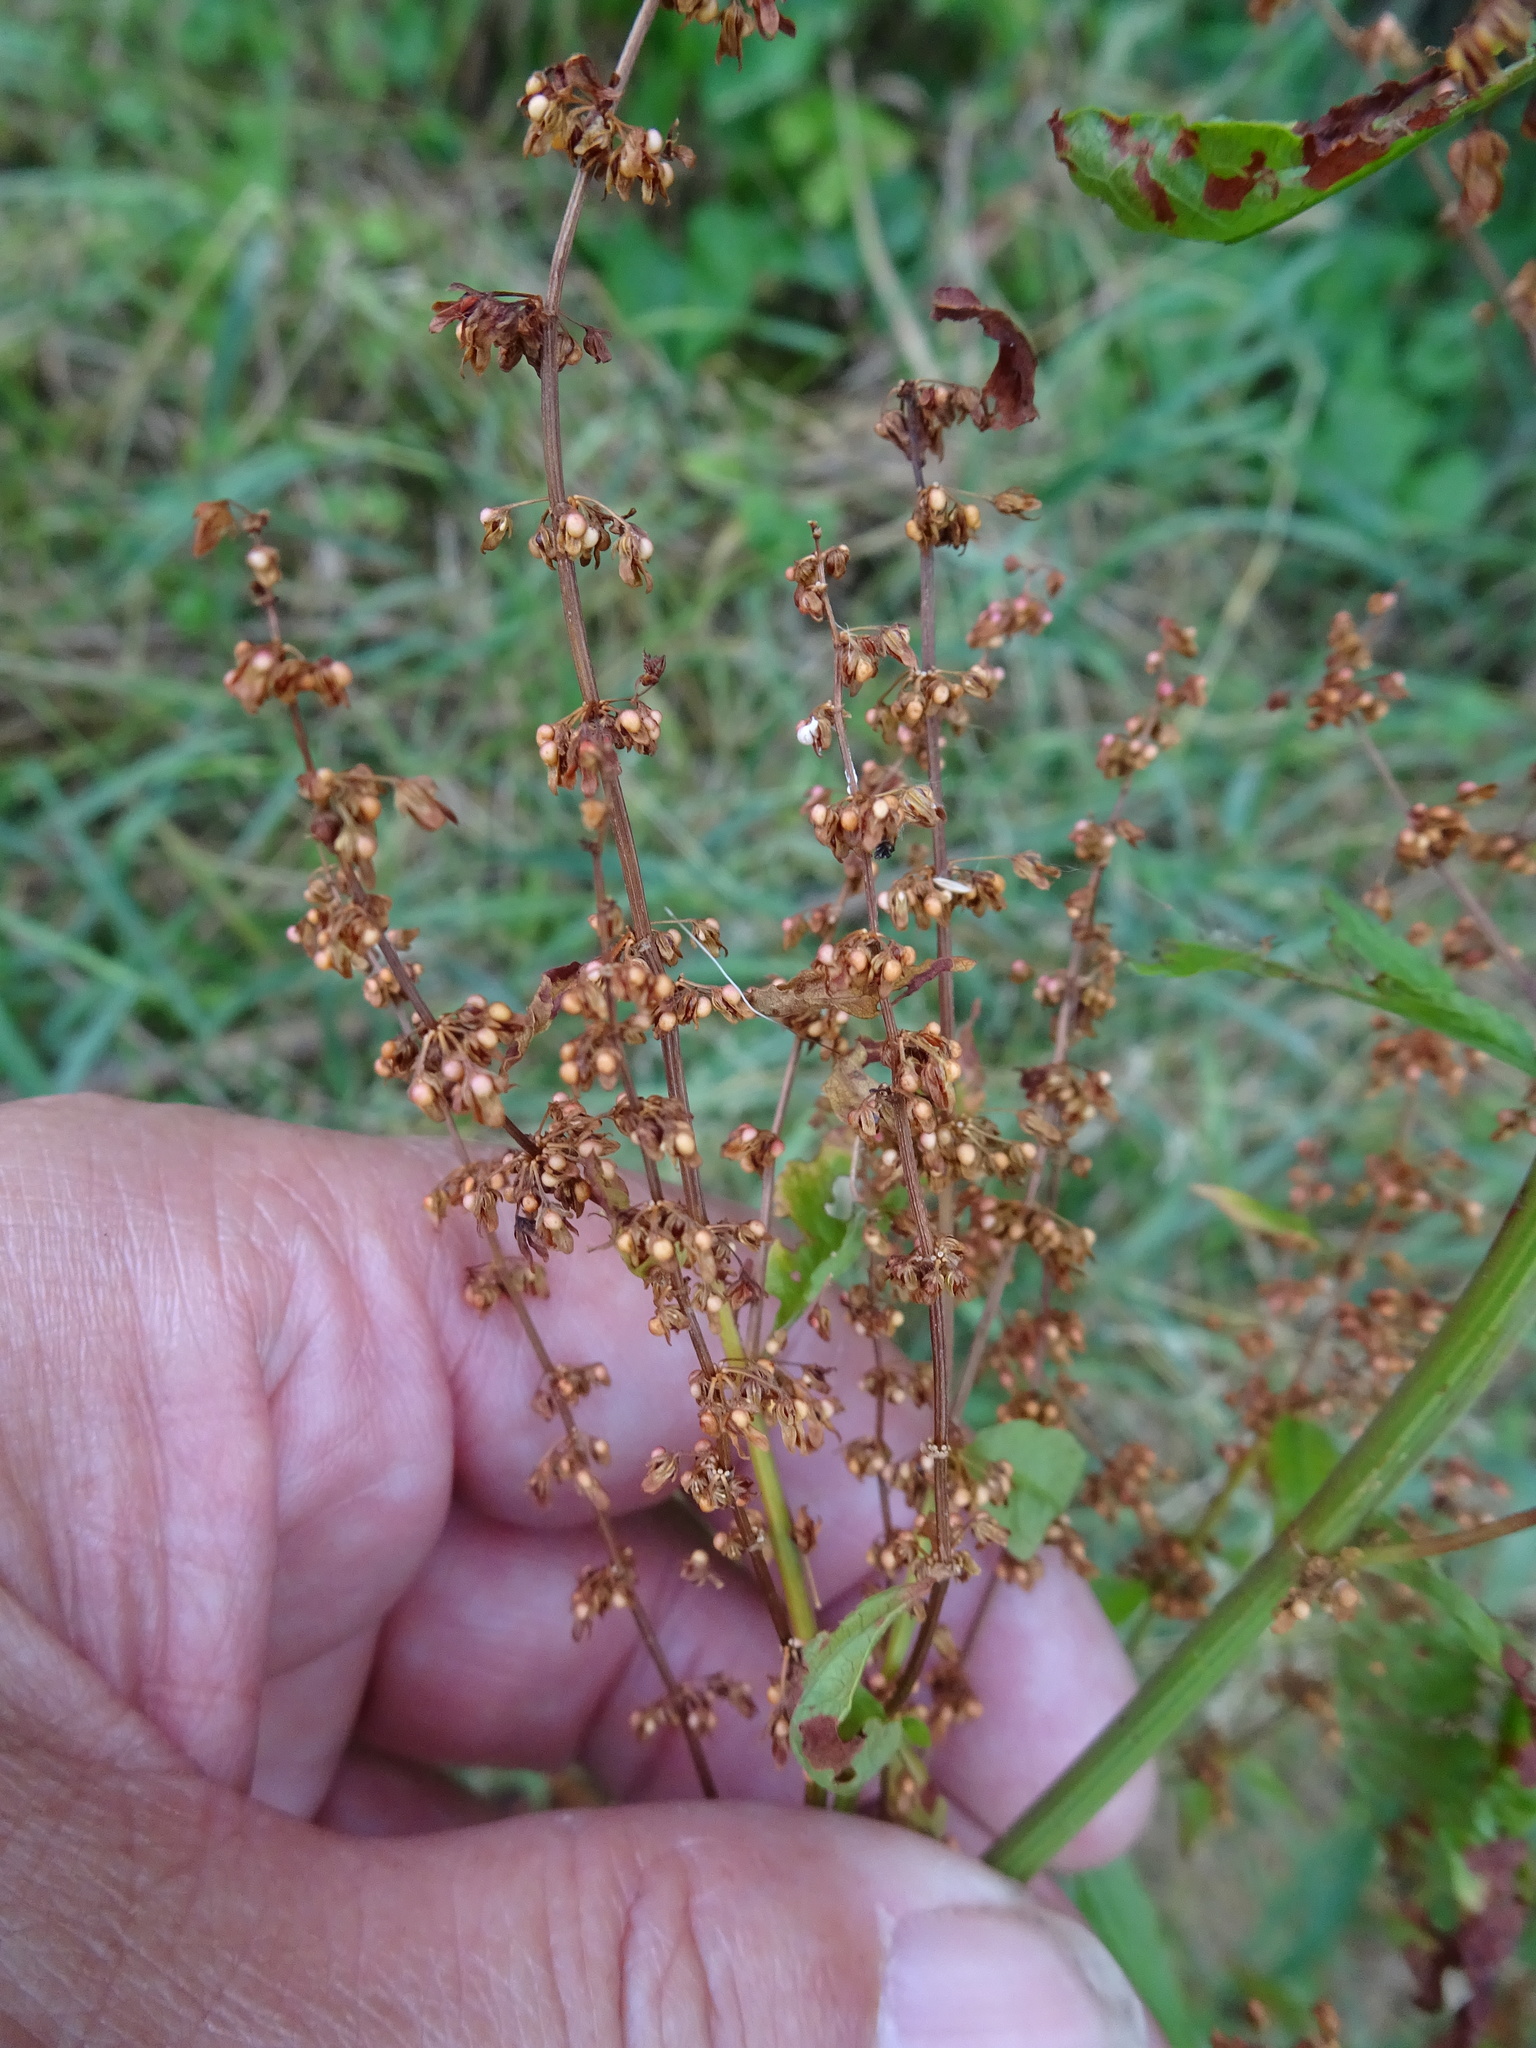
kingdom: Plantae
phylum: Tracheophyta
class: Magnoliopsida
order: Caryophyllales
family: Polygonaceae
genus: Rumex
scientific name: Rumex sanguineus
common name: Wood dock
